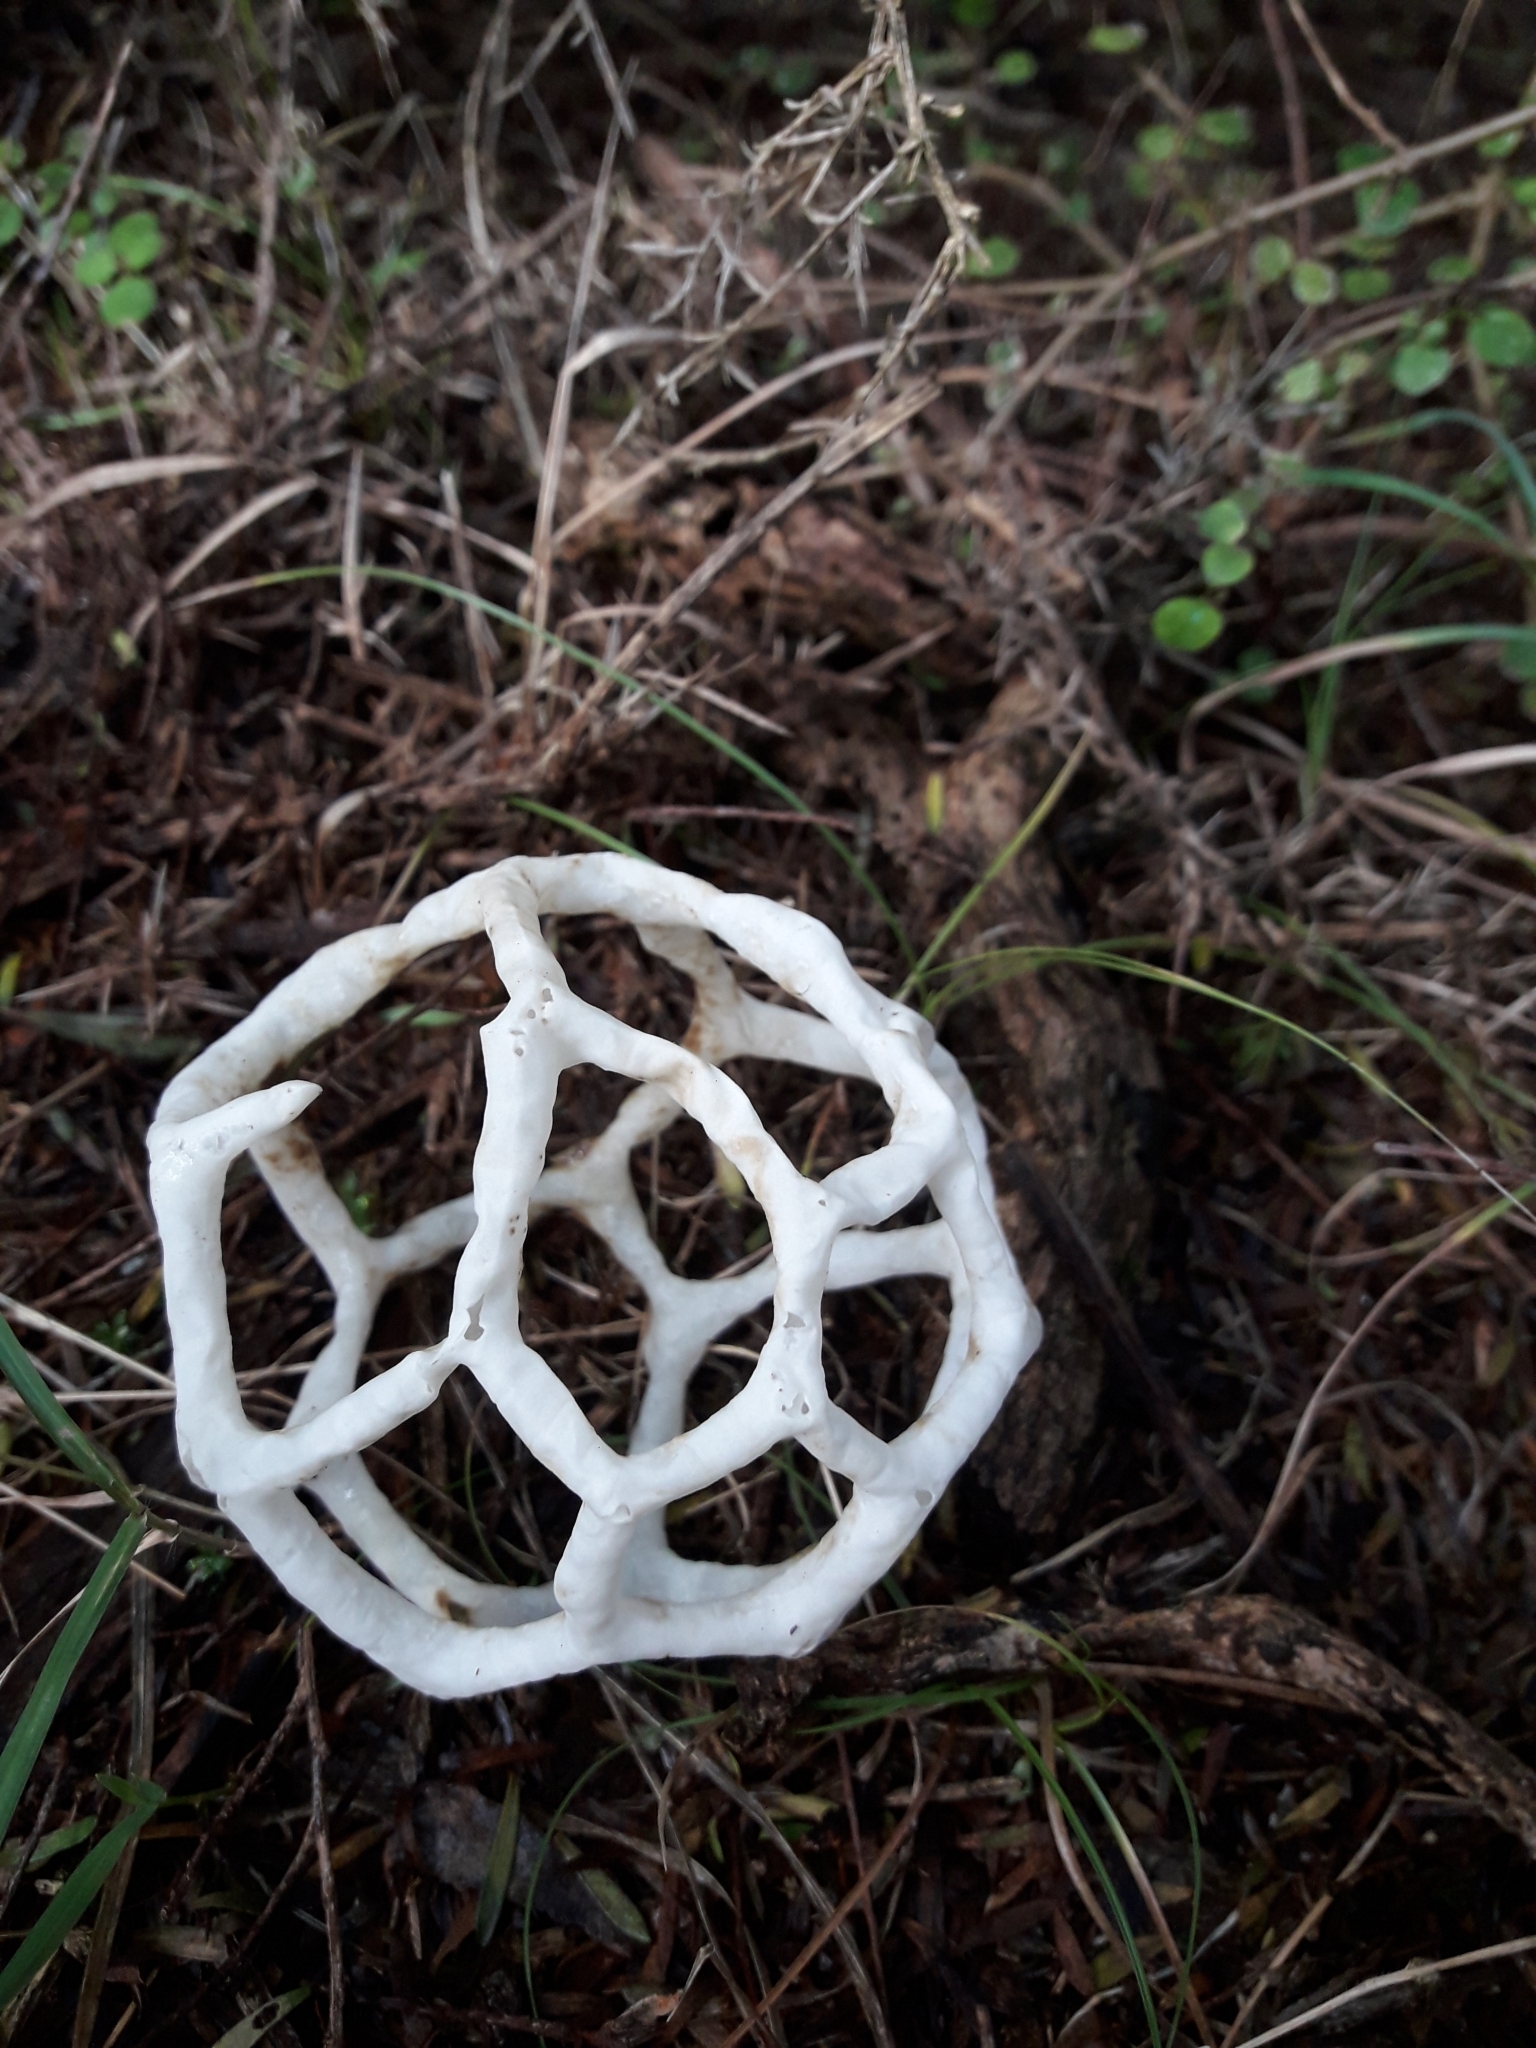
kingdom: Fungi
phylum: Basidiomycota
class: Agaricomycetes
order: Phallales
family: Phallaceae
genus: Ileodictyon
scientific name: Ileodictyon cibarium
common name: Basket fungus
